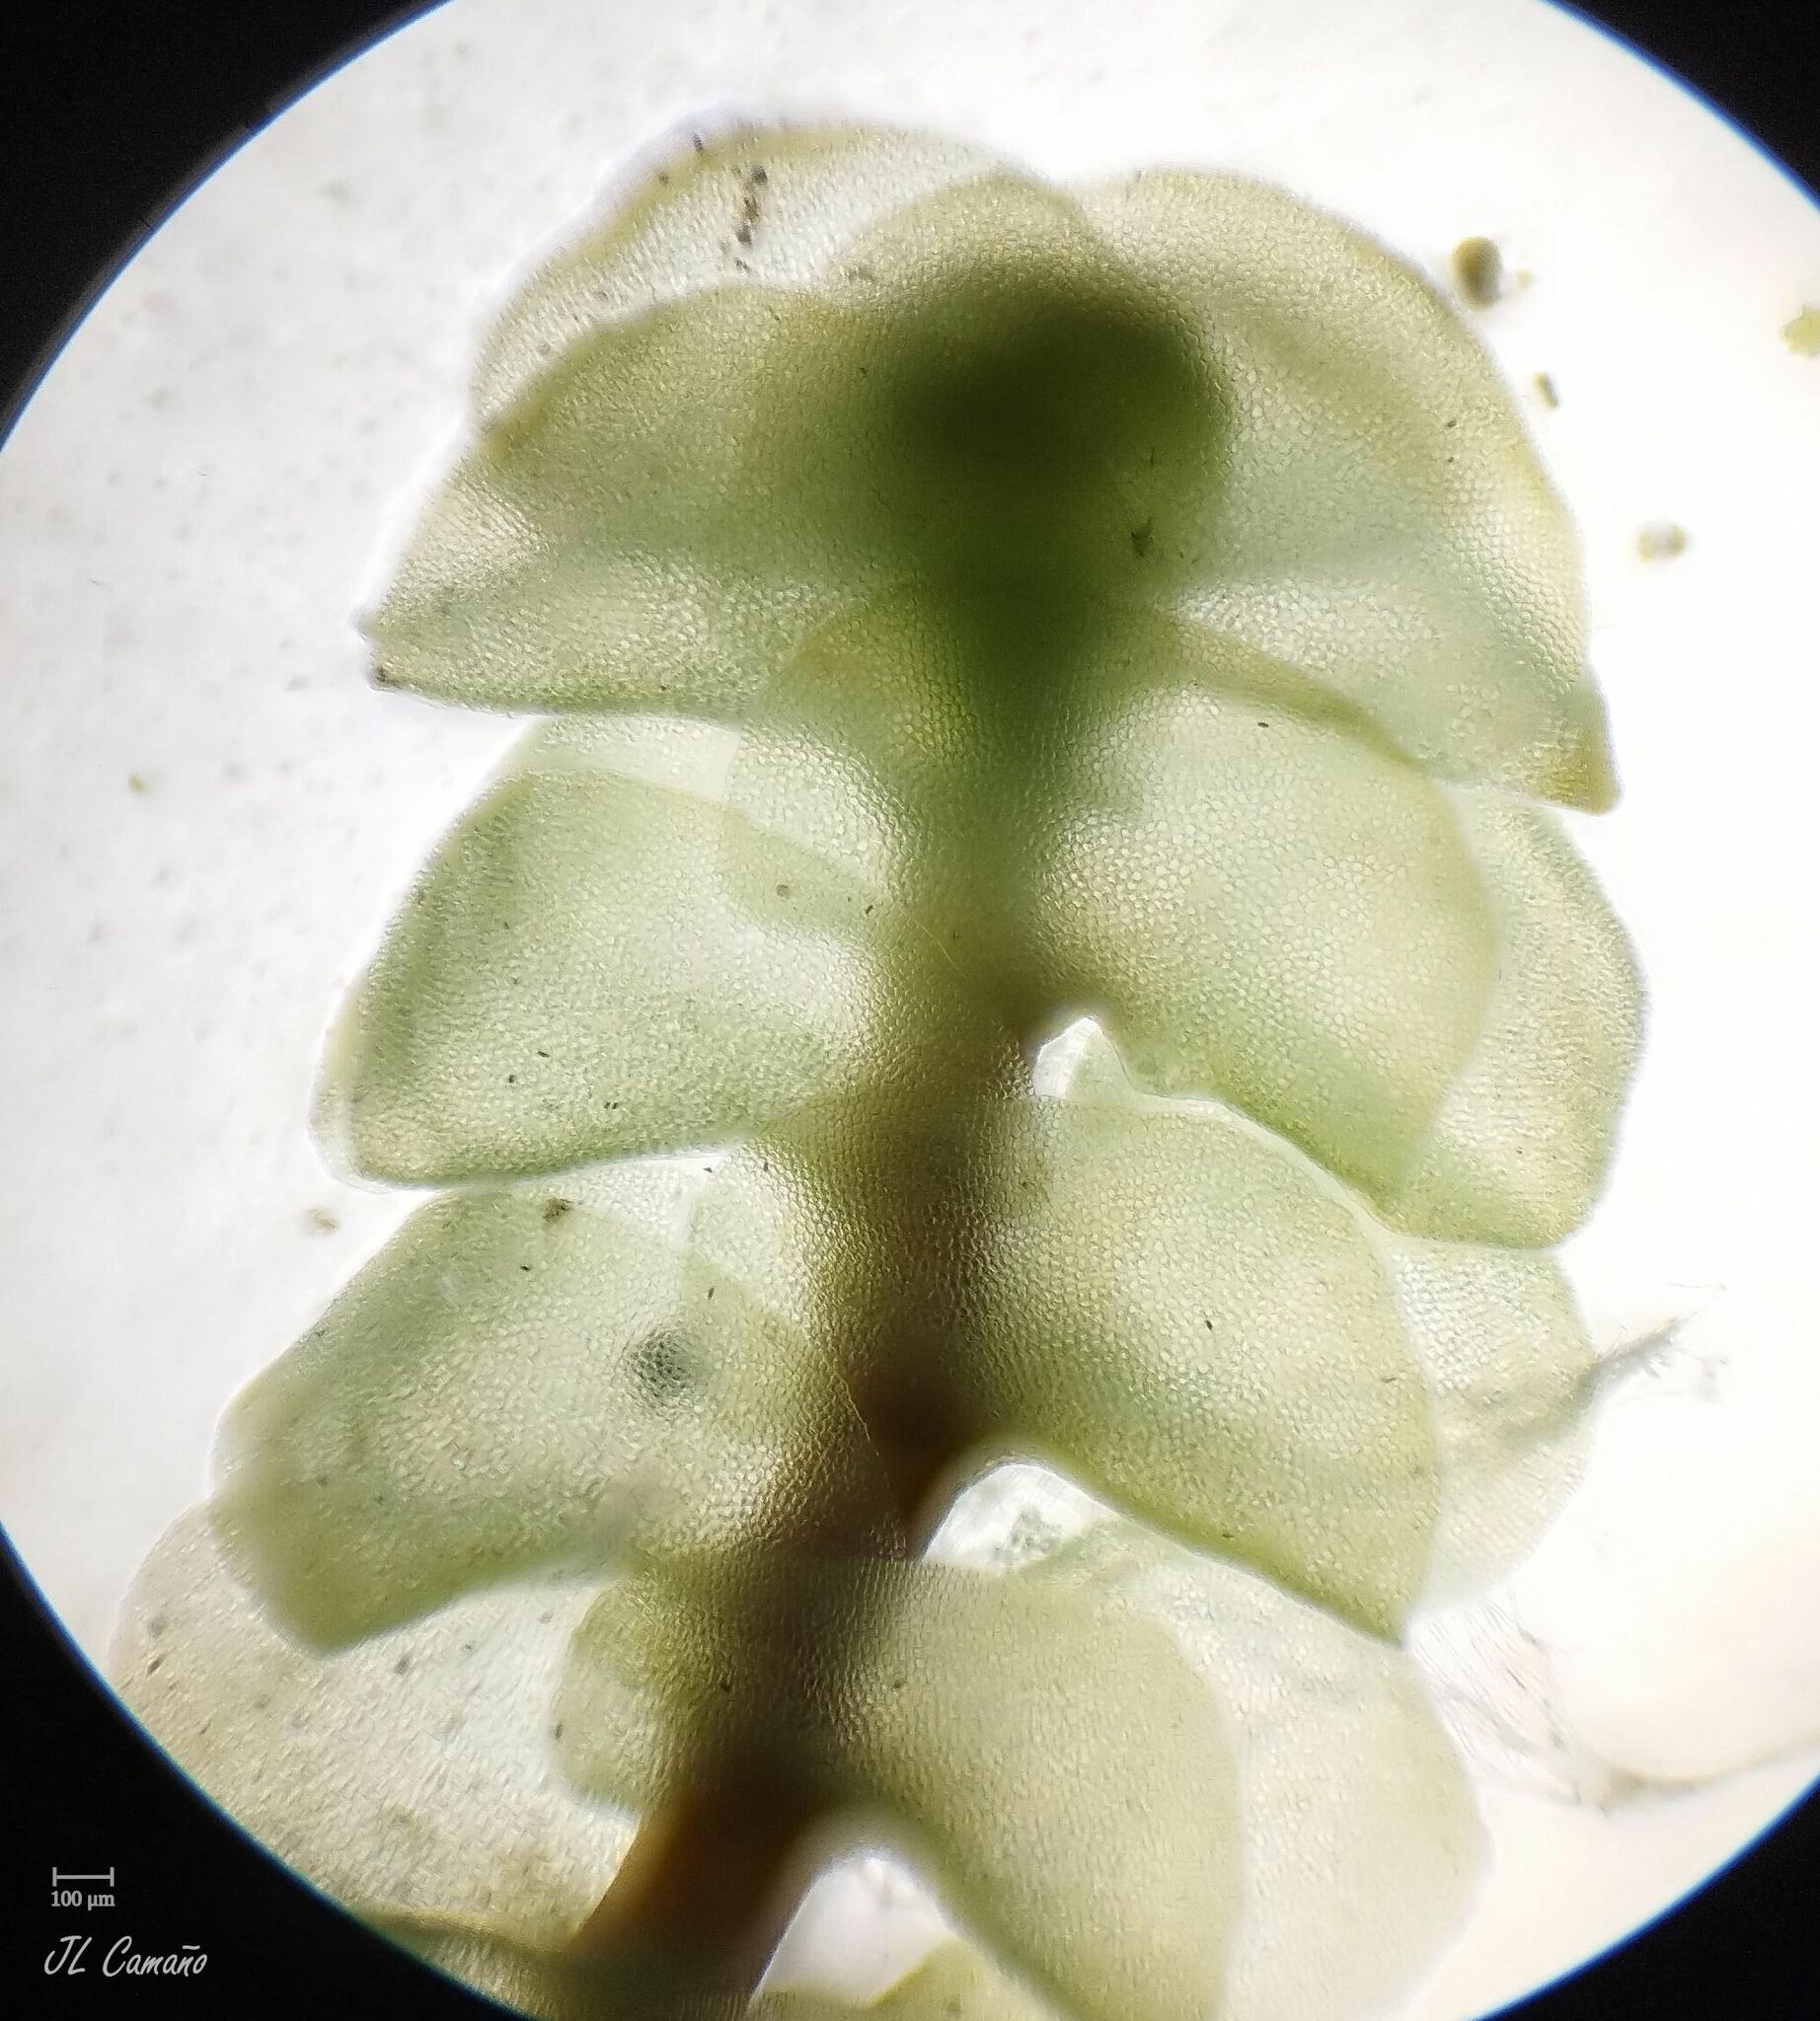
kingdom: Plantae
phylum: Marchantiophyta
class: Jungermanniopsida
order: Jungermanniales
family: Scapaniaceae
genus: Scapania
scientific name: Scapania compacta
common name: Thick-set earwort
